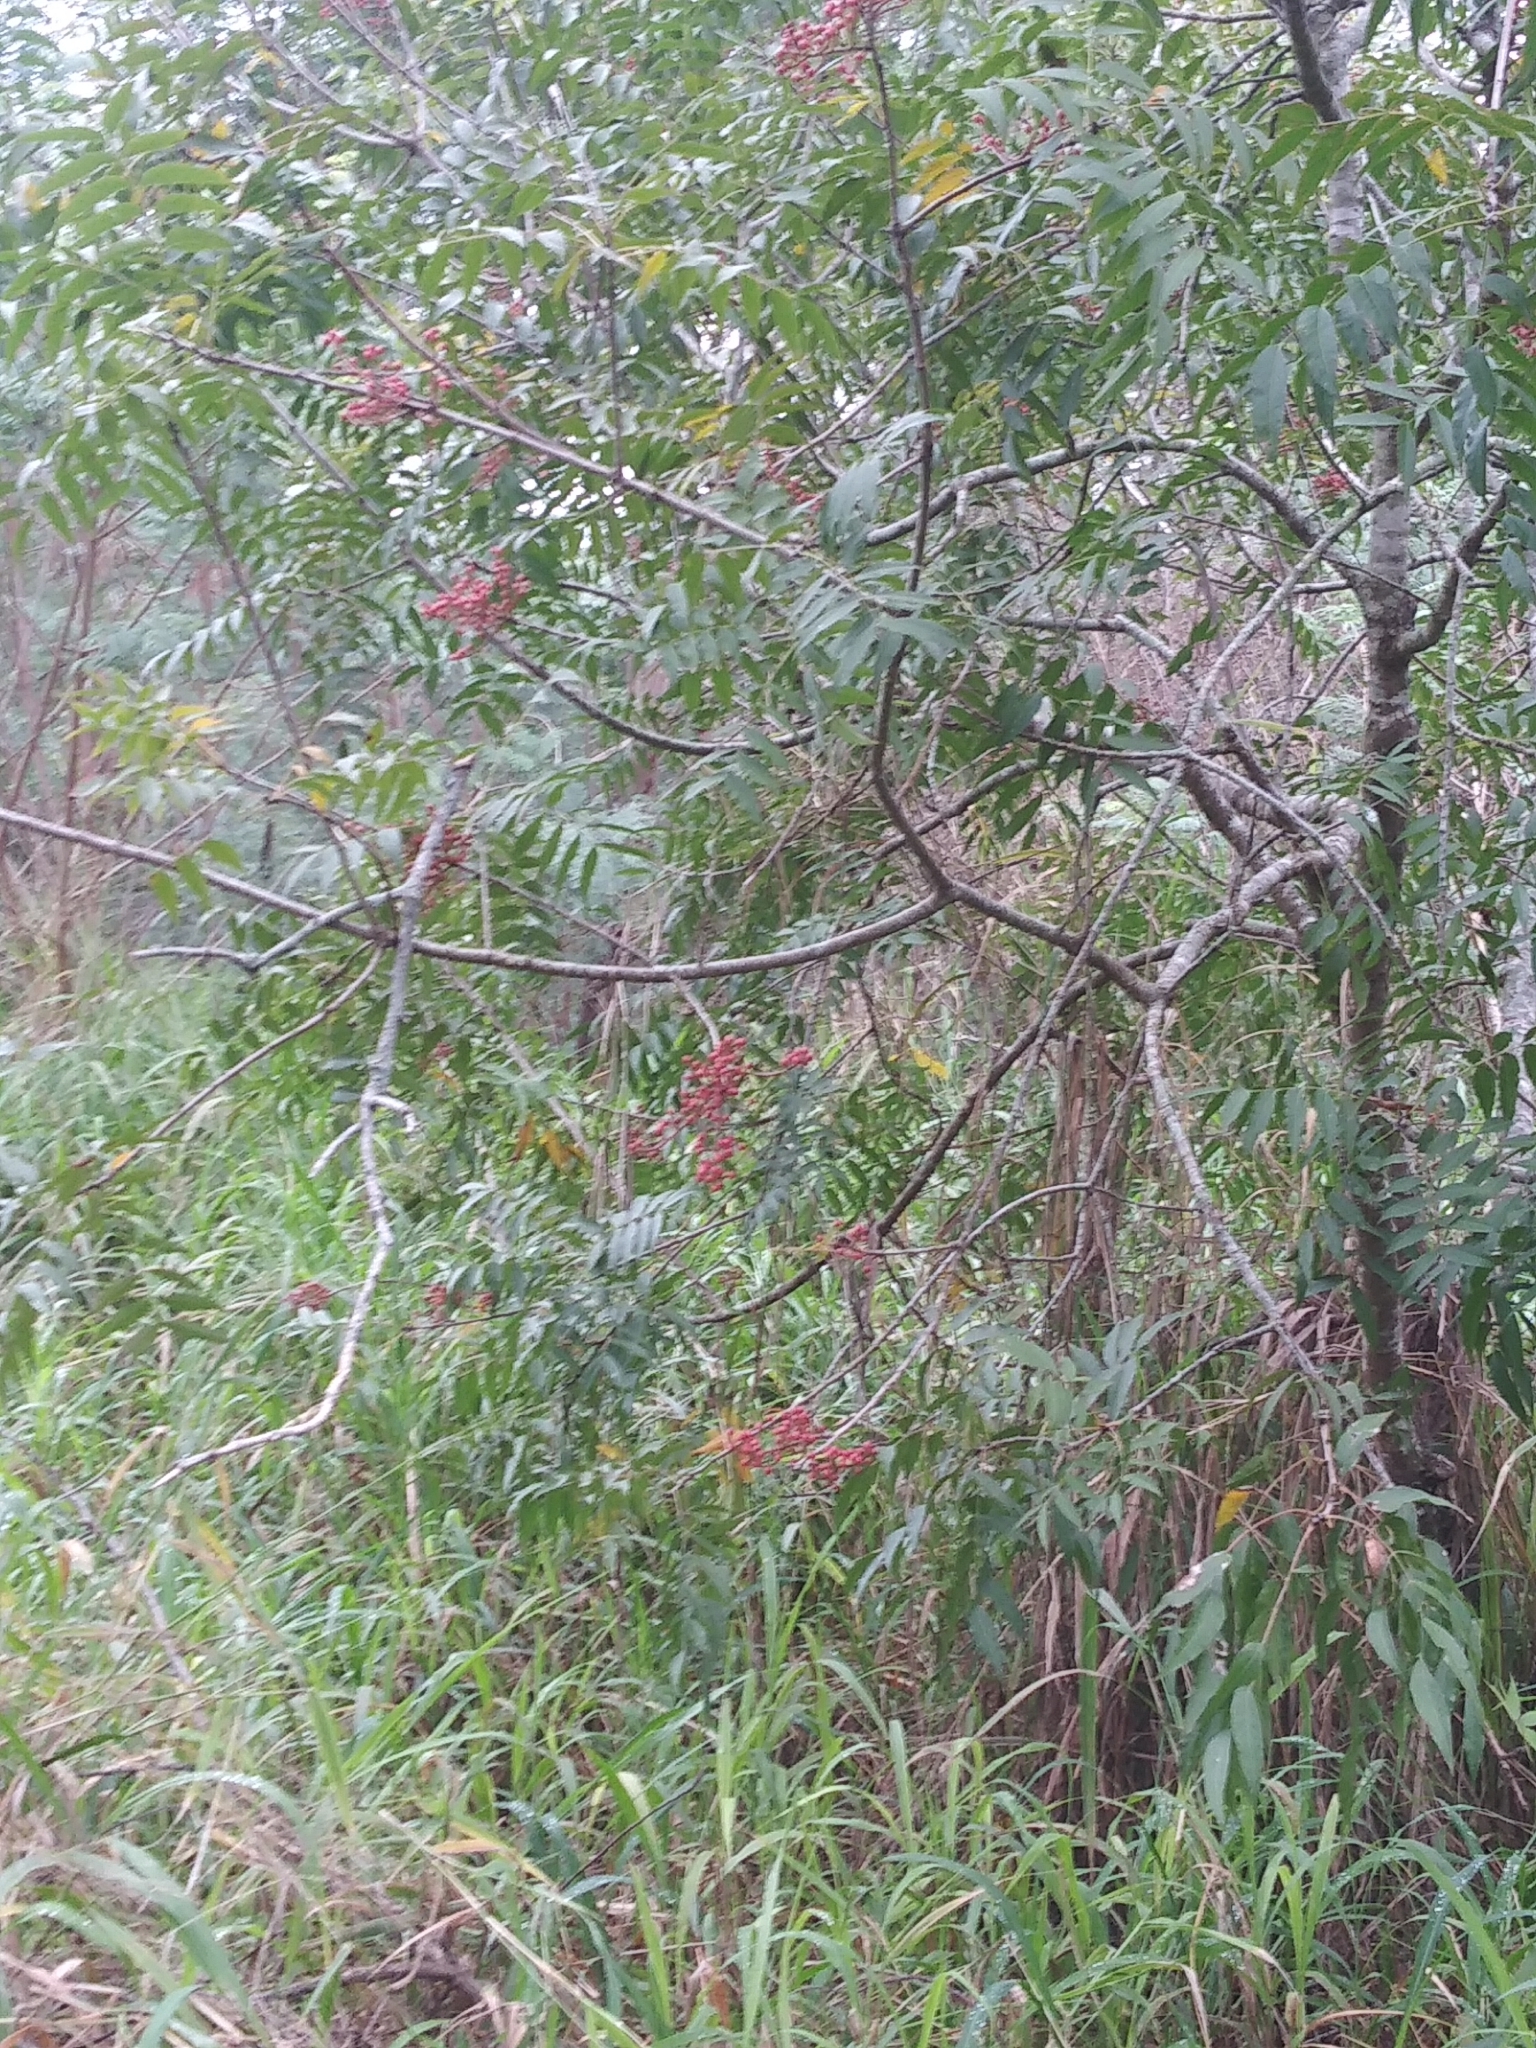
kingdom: Plantae
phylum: Tracheophyta
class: Magnoliopsida
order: Sapindales
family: Anacardiaceae
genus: Pistacia
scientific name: Pistacia chinensis
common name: Chinese pistache
